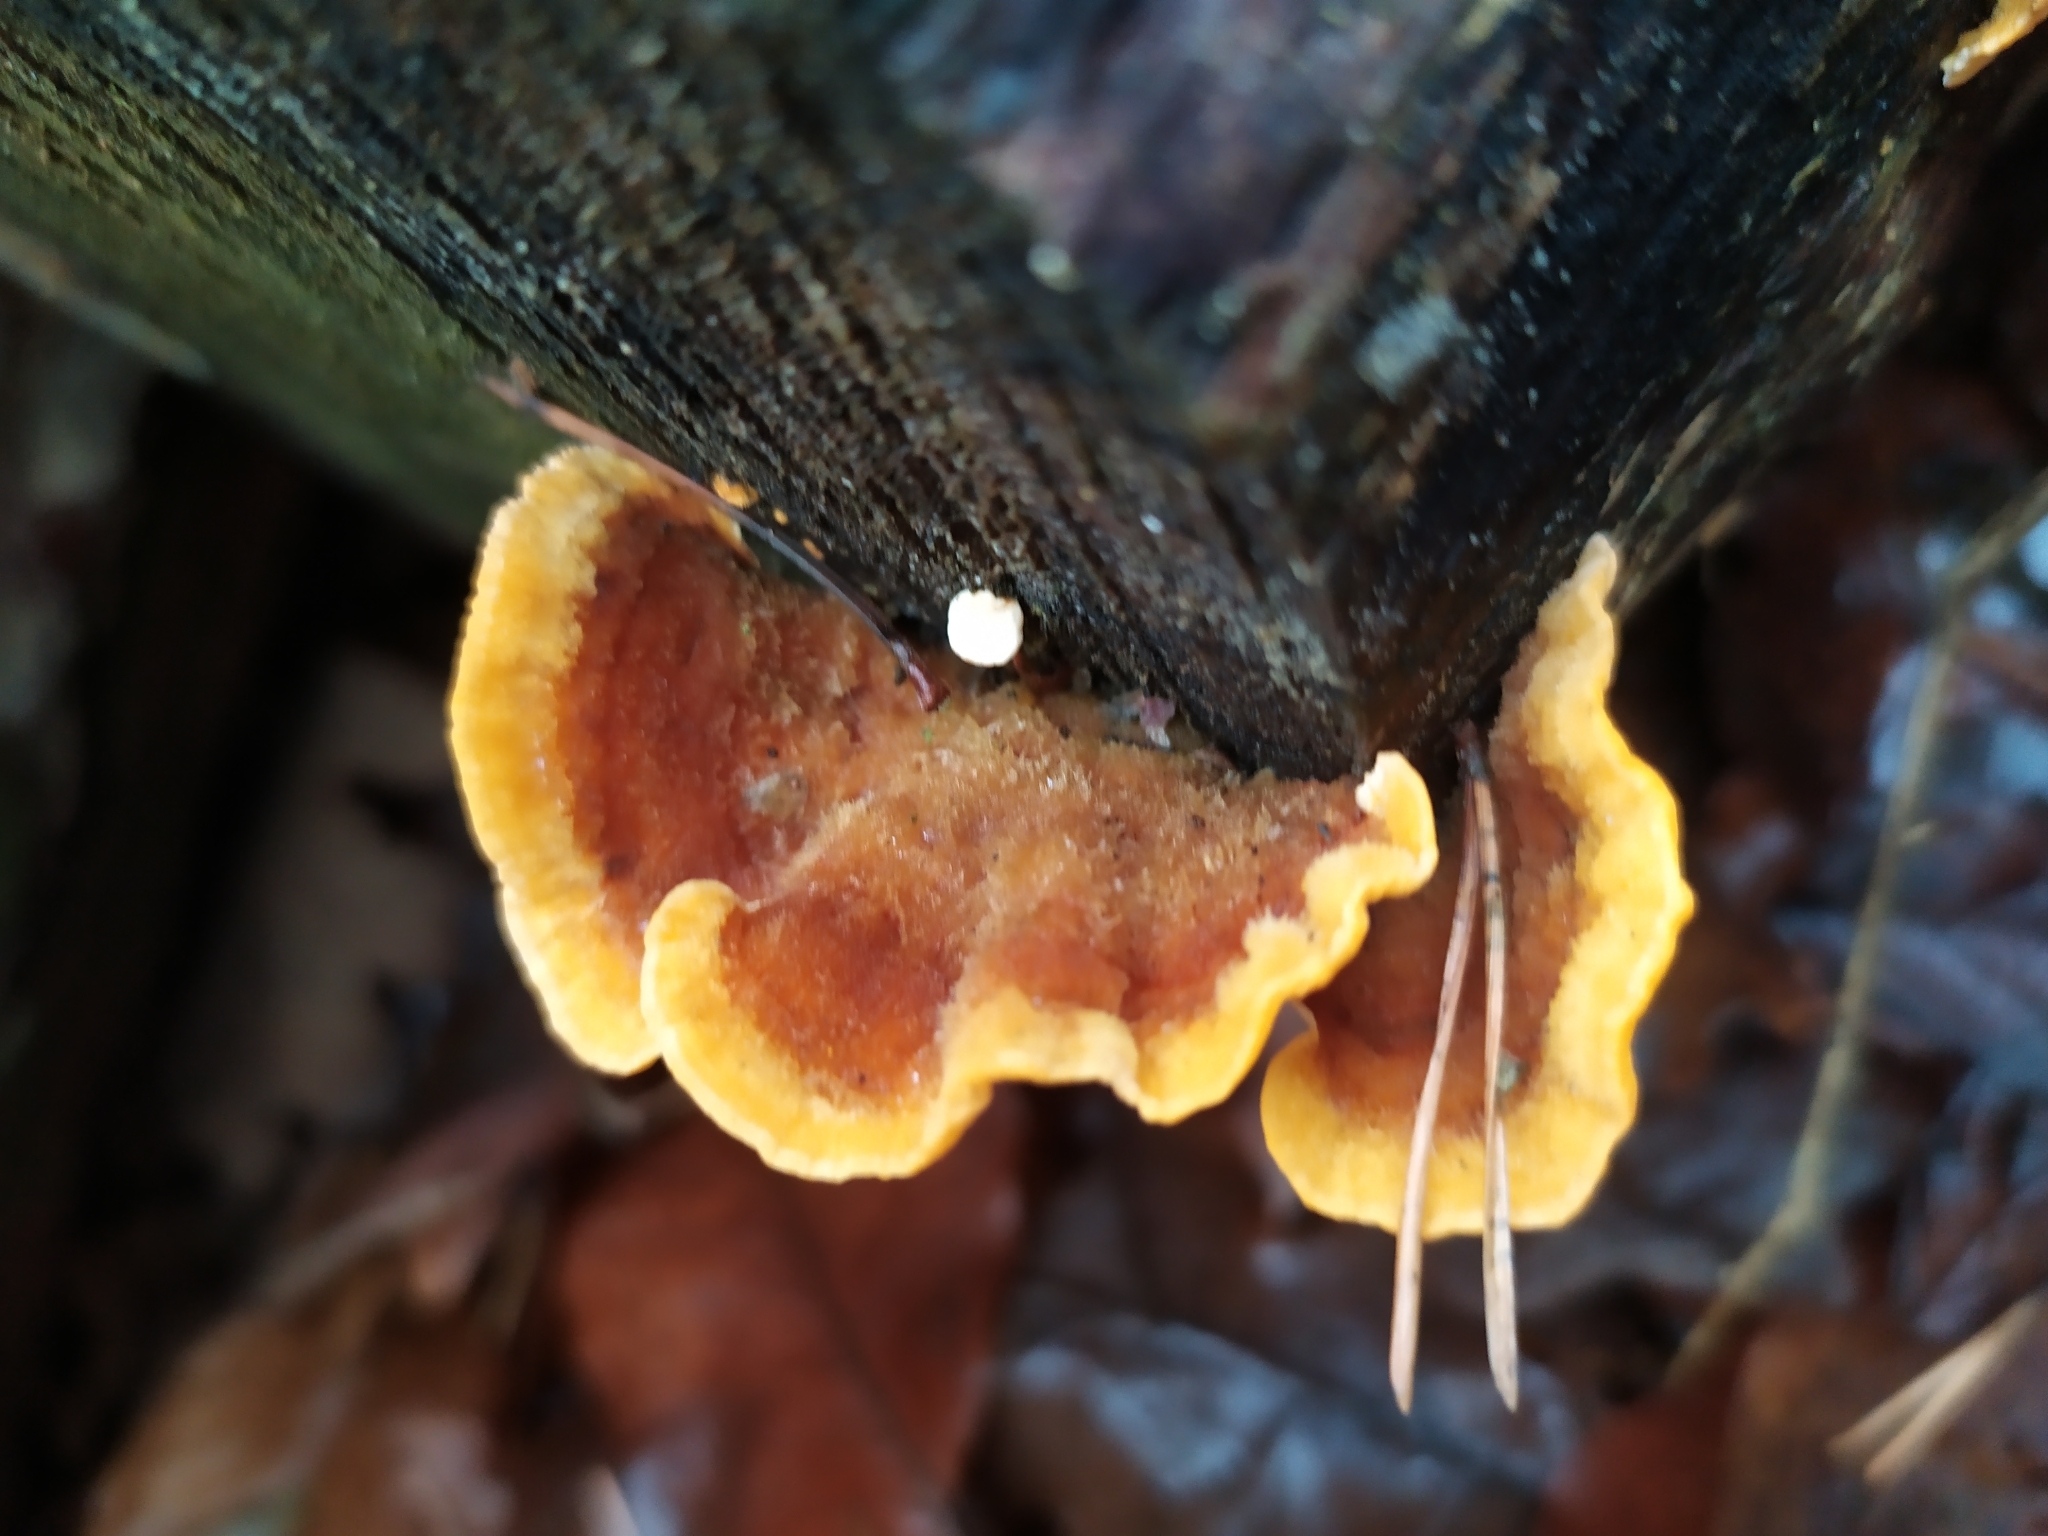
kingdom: Fungi
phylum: Basidiomycota
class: Agaricomycetes
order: Russulales
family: Stereaceae
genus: Stereum
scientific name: Stereum hirsutum
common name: Hairy curtain crust
